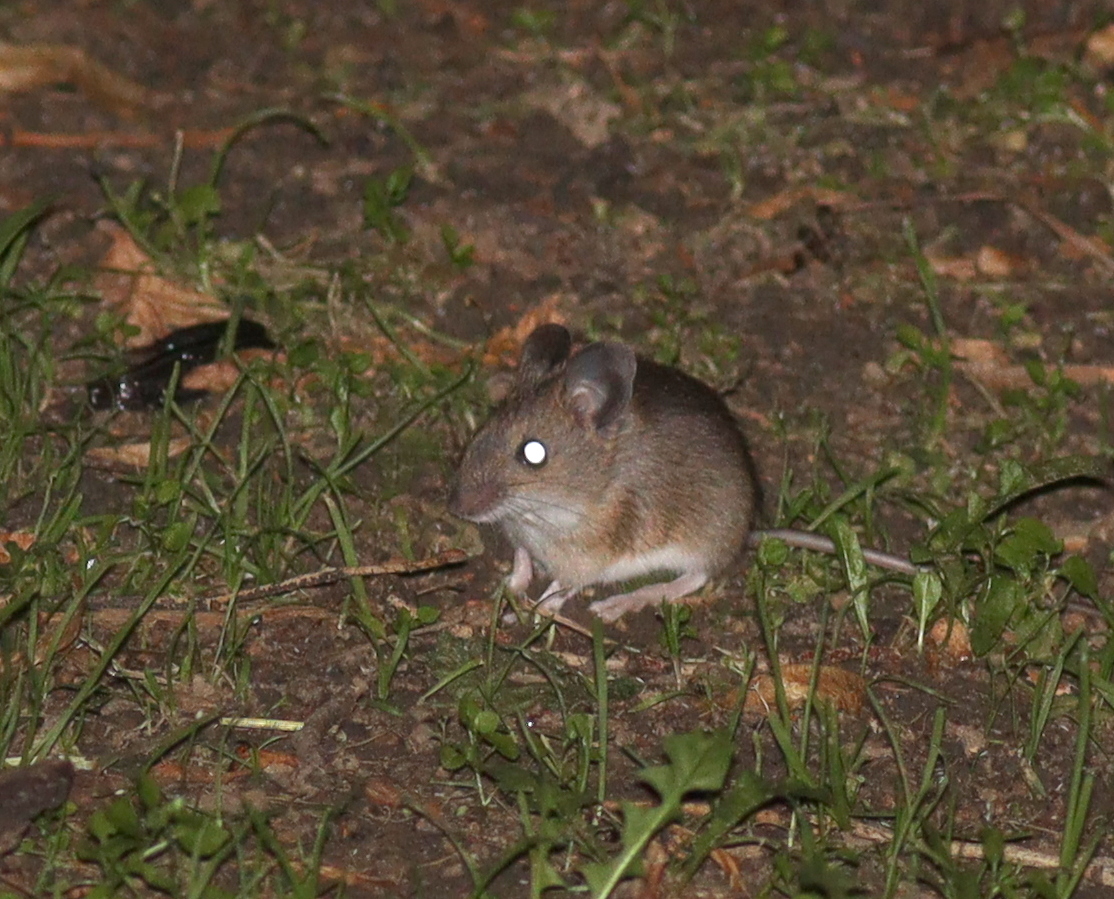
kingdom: Animalia
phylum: Chordata
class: Mammalia
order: Rodentia
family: Muridae
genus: Apodemus
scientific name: Apodemus flavicollis
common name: Yellow-necked field mouse
